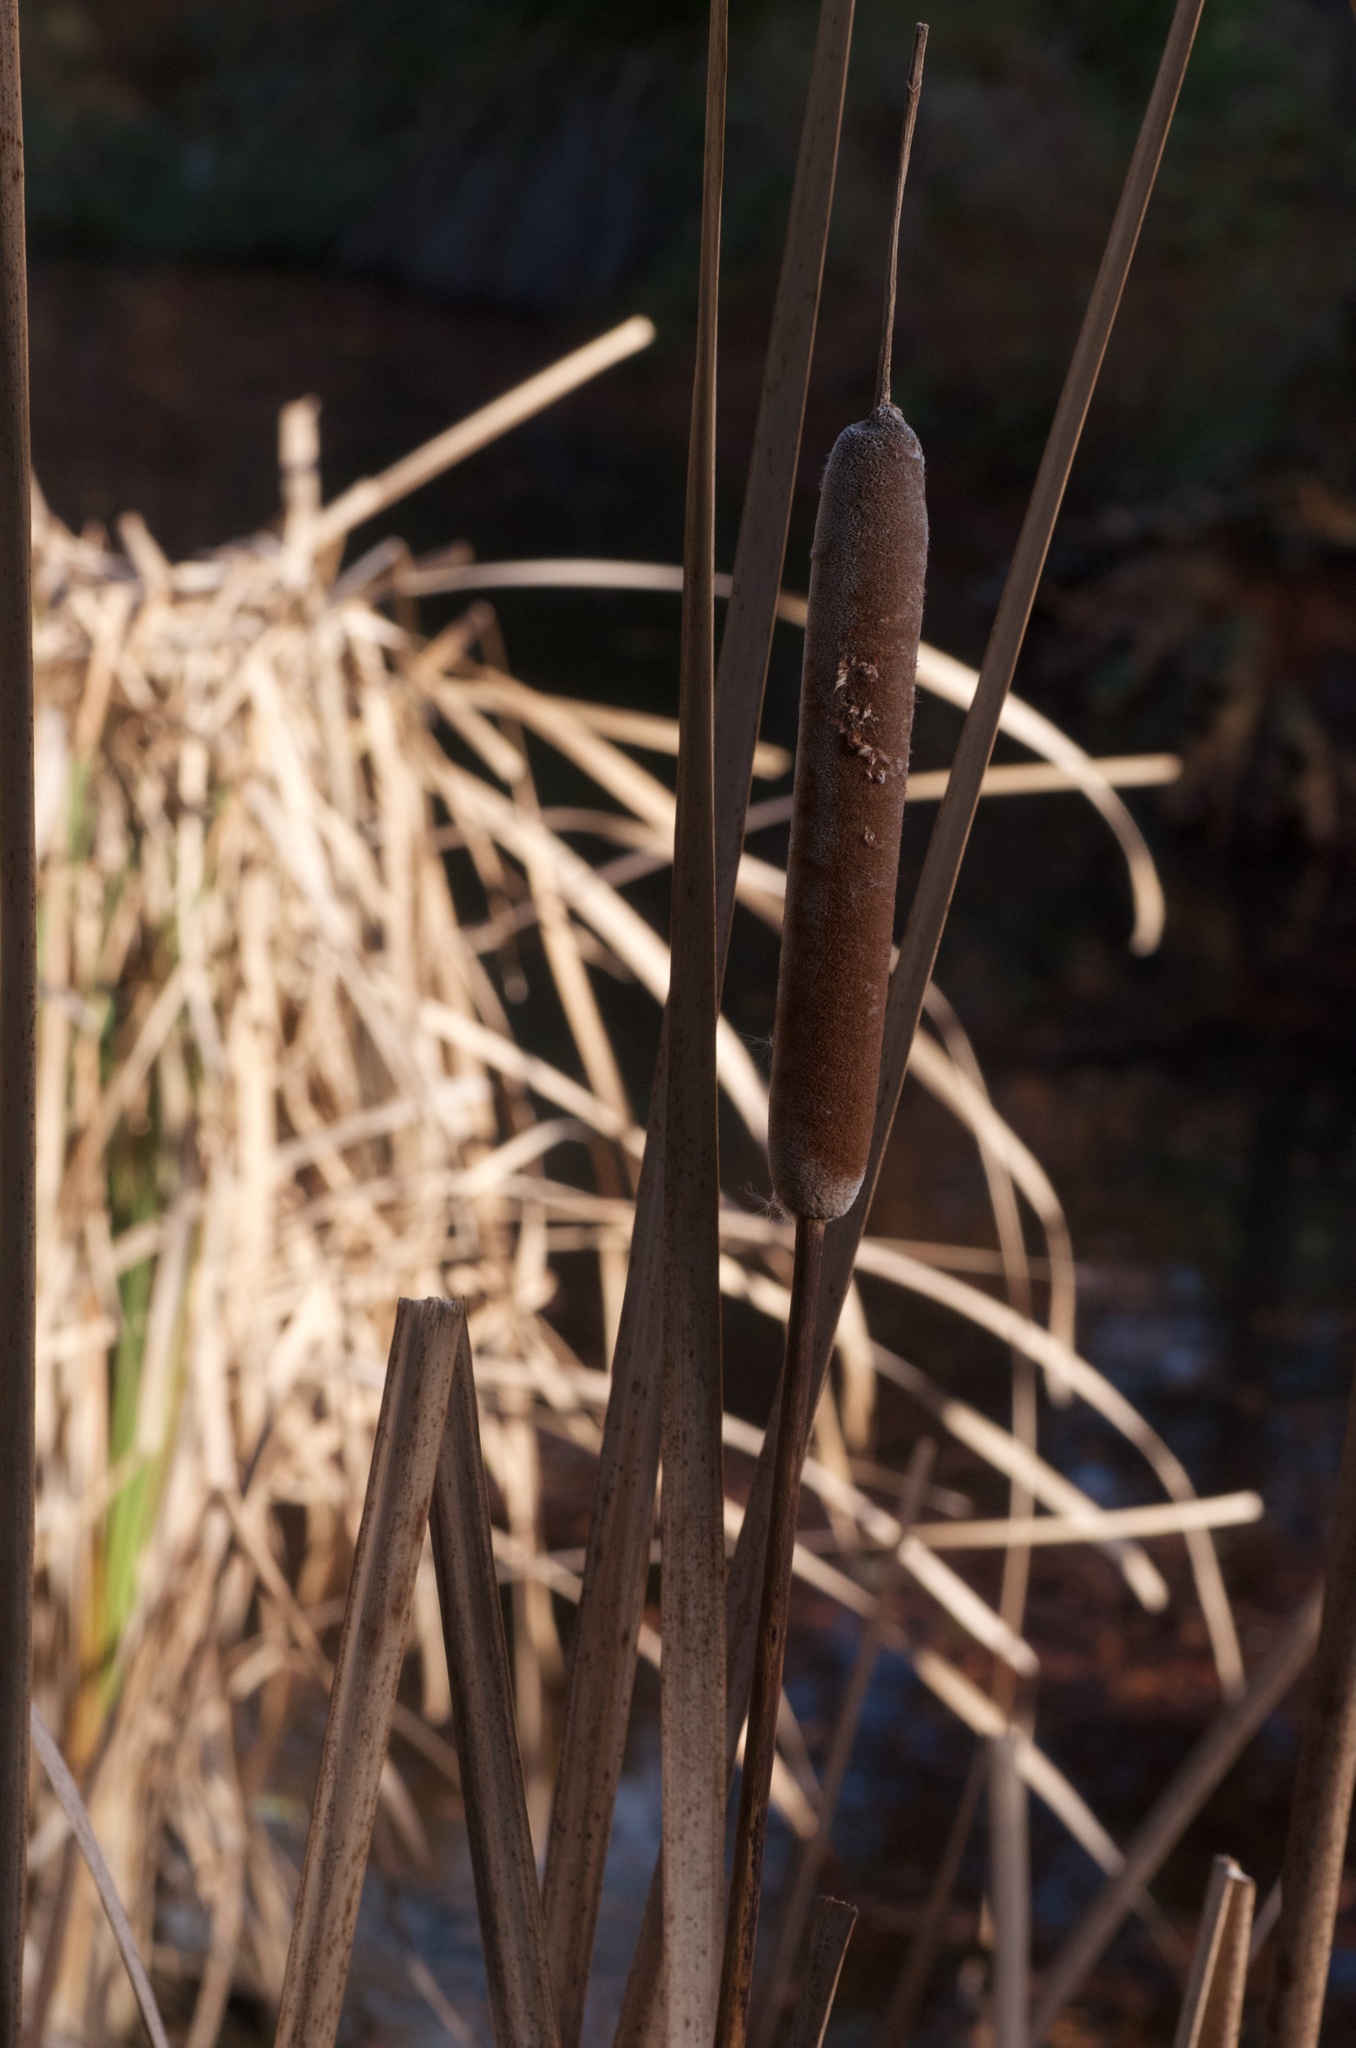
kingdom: Plantae
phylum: Tracheophyta
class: Liliopsida
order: Poales
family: Typhaceae
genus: Typha
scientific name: Typha orientalis
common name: Bullrush
